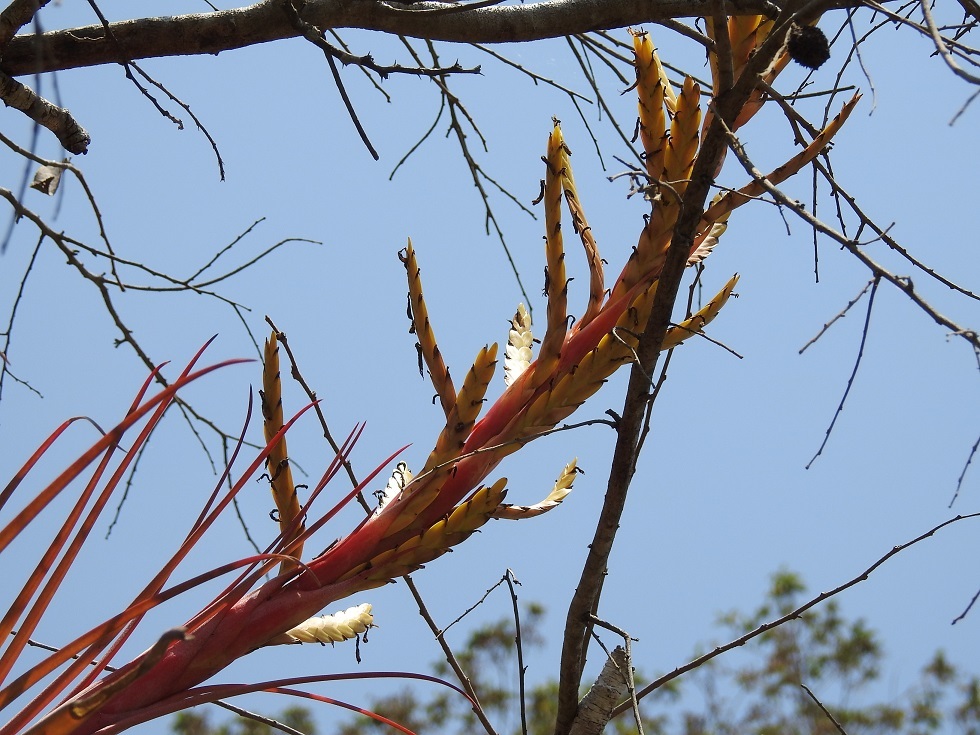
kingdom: Plantae
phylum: Tracheophyta
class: Liliopsida
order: Poales
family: Bromeliaceae
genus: Tillandsia
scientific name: Tillandsia rodrigueziana
